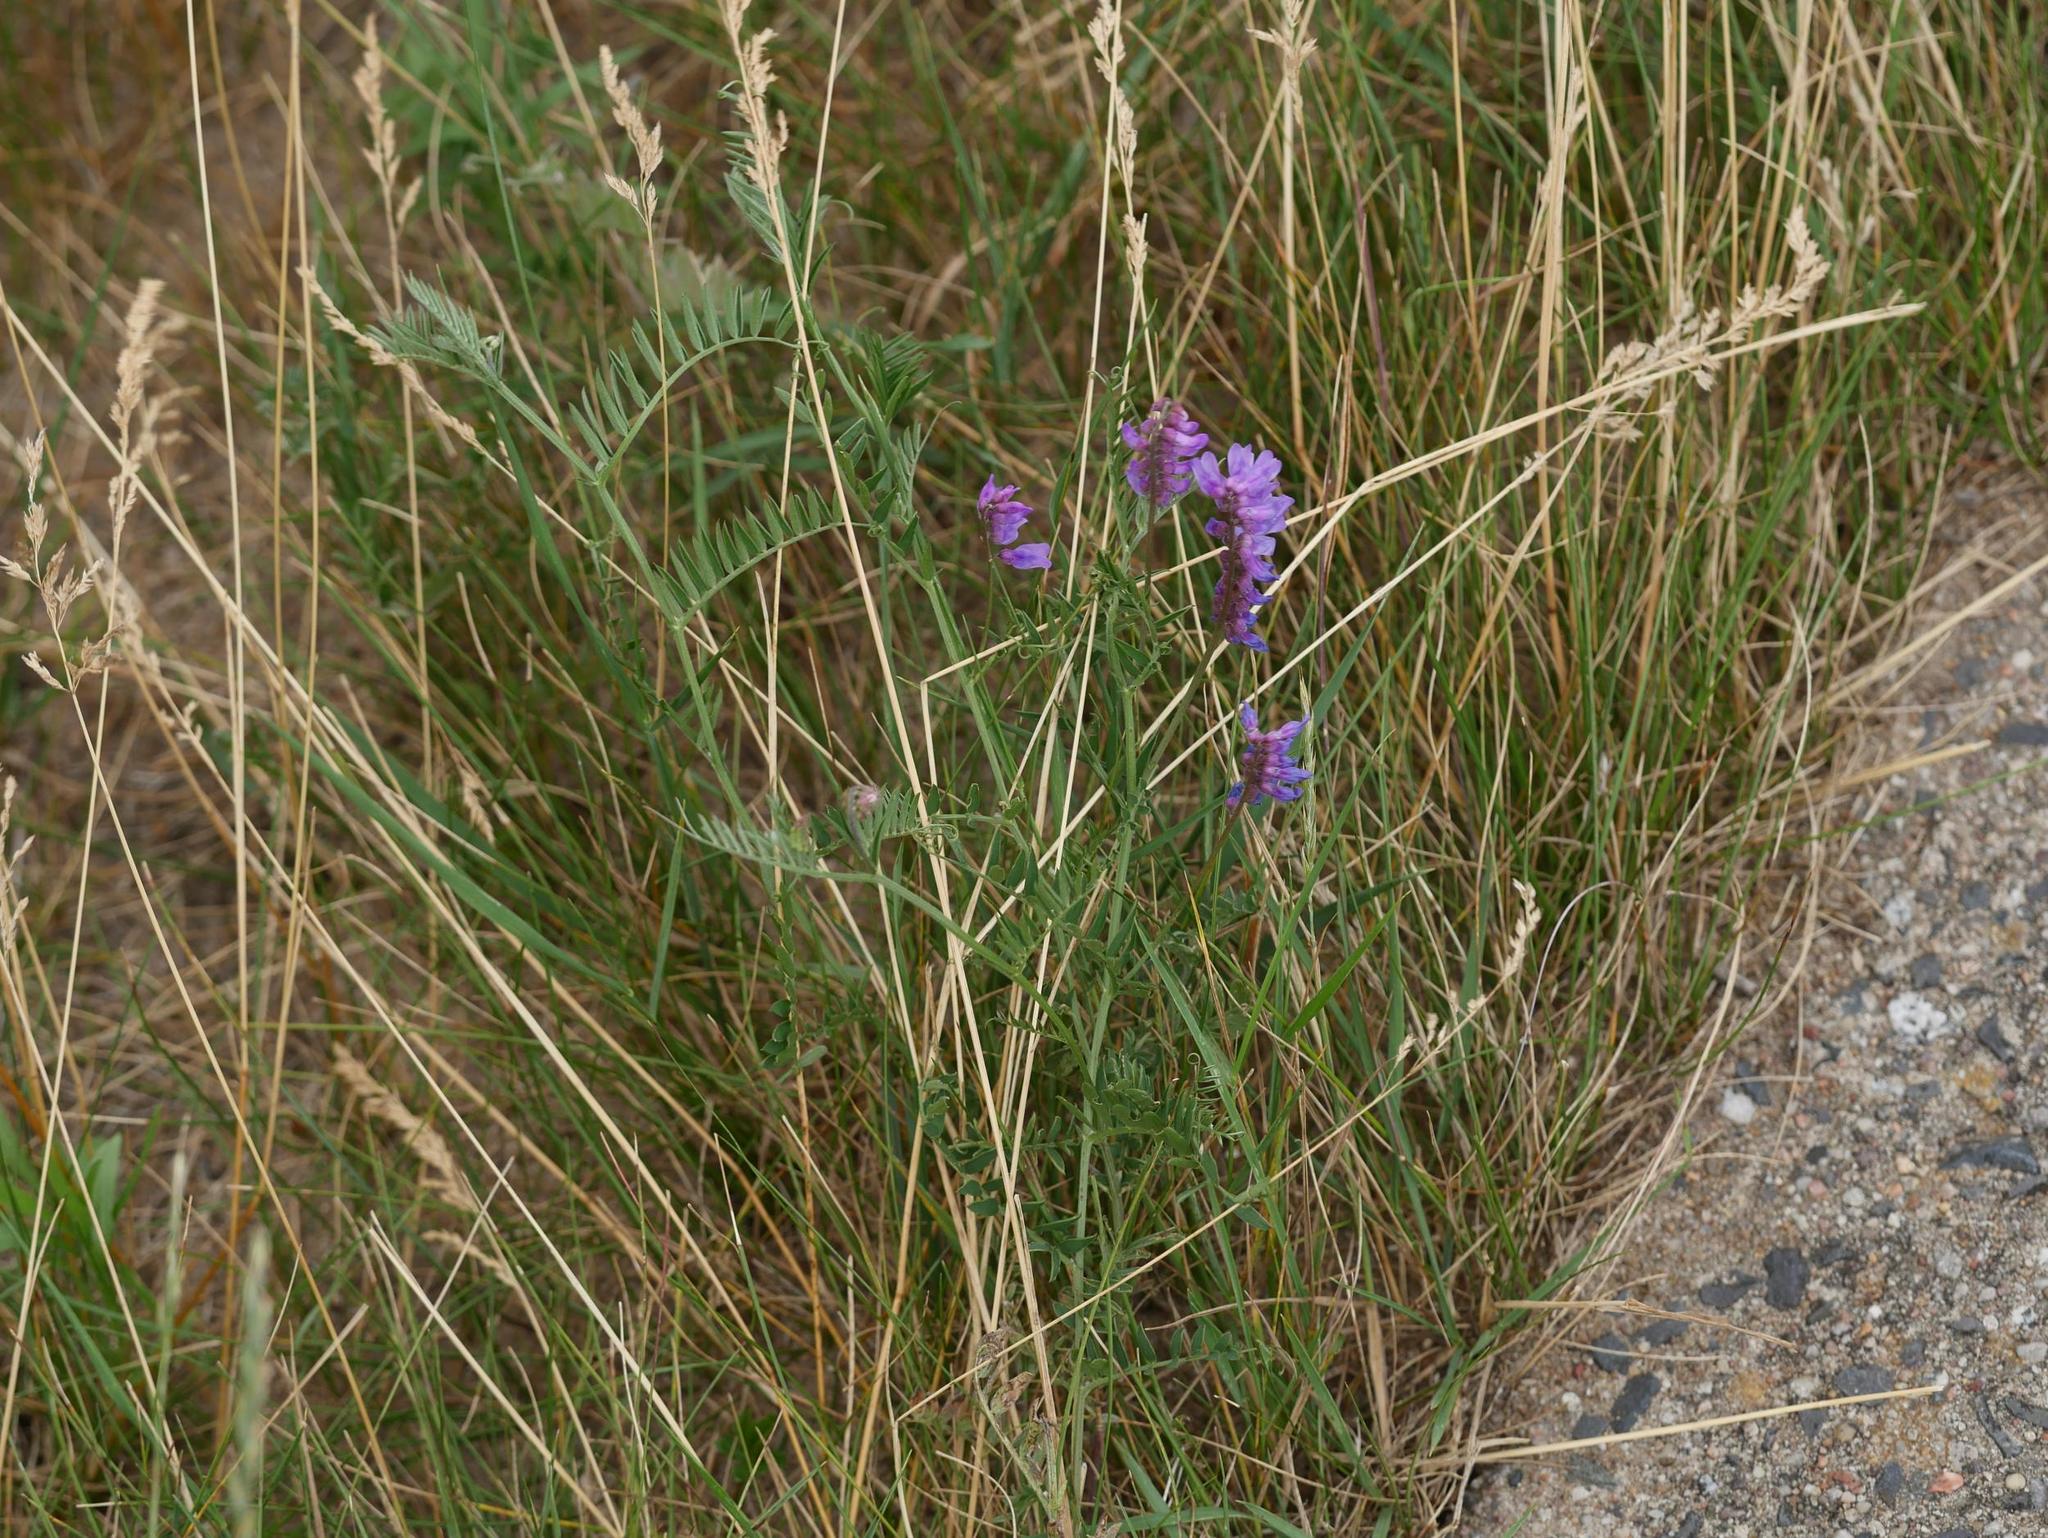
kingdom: Plantae
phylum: Tracheophyta
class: Magnoliopsida
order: Fabales
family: Fabaceae
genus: Vicia
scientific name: Vicia cracca
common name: Bird vetch
